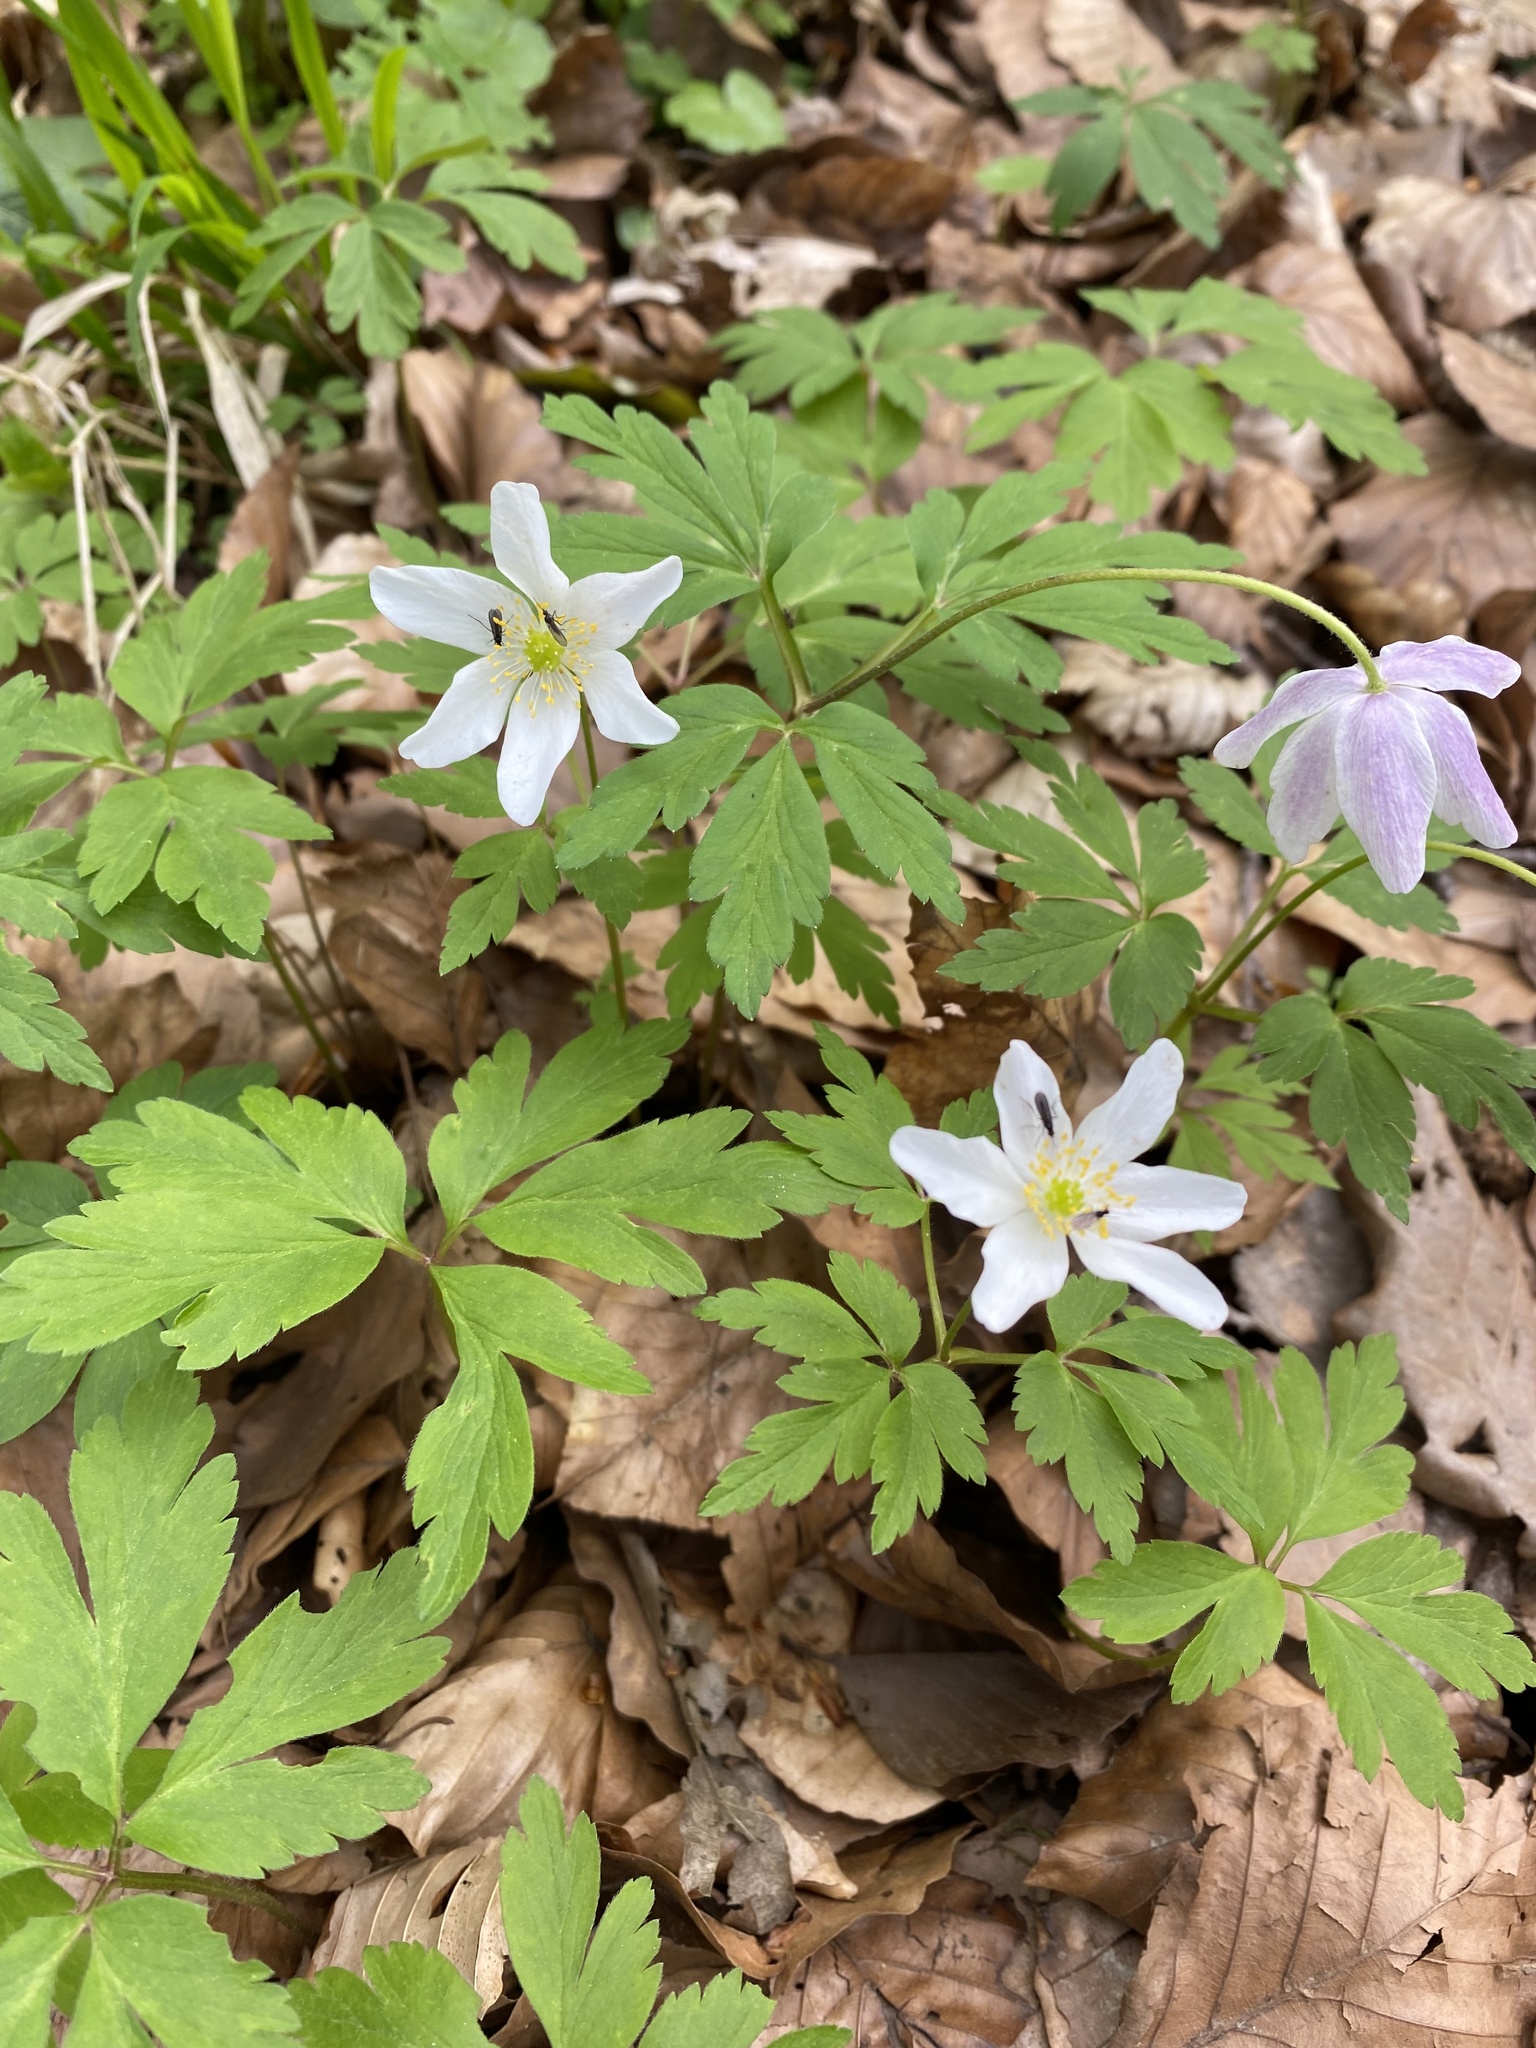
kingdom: Plantae
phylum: Tracheophyta
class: Magnoliopsida
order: Ranunculales
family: Ranunculaceae
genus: Anemone
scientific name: Anemone nemorosa
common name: Wood anemone
